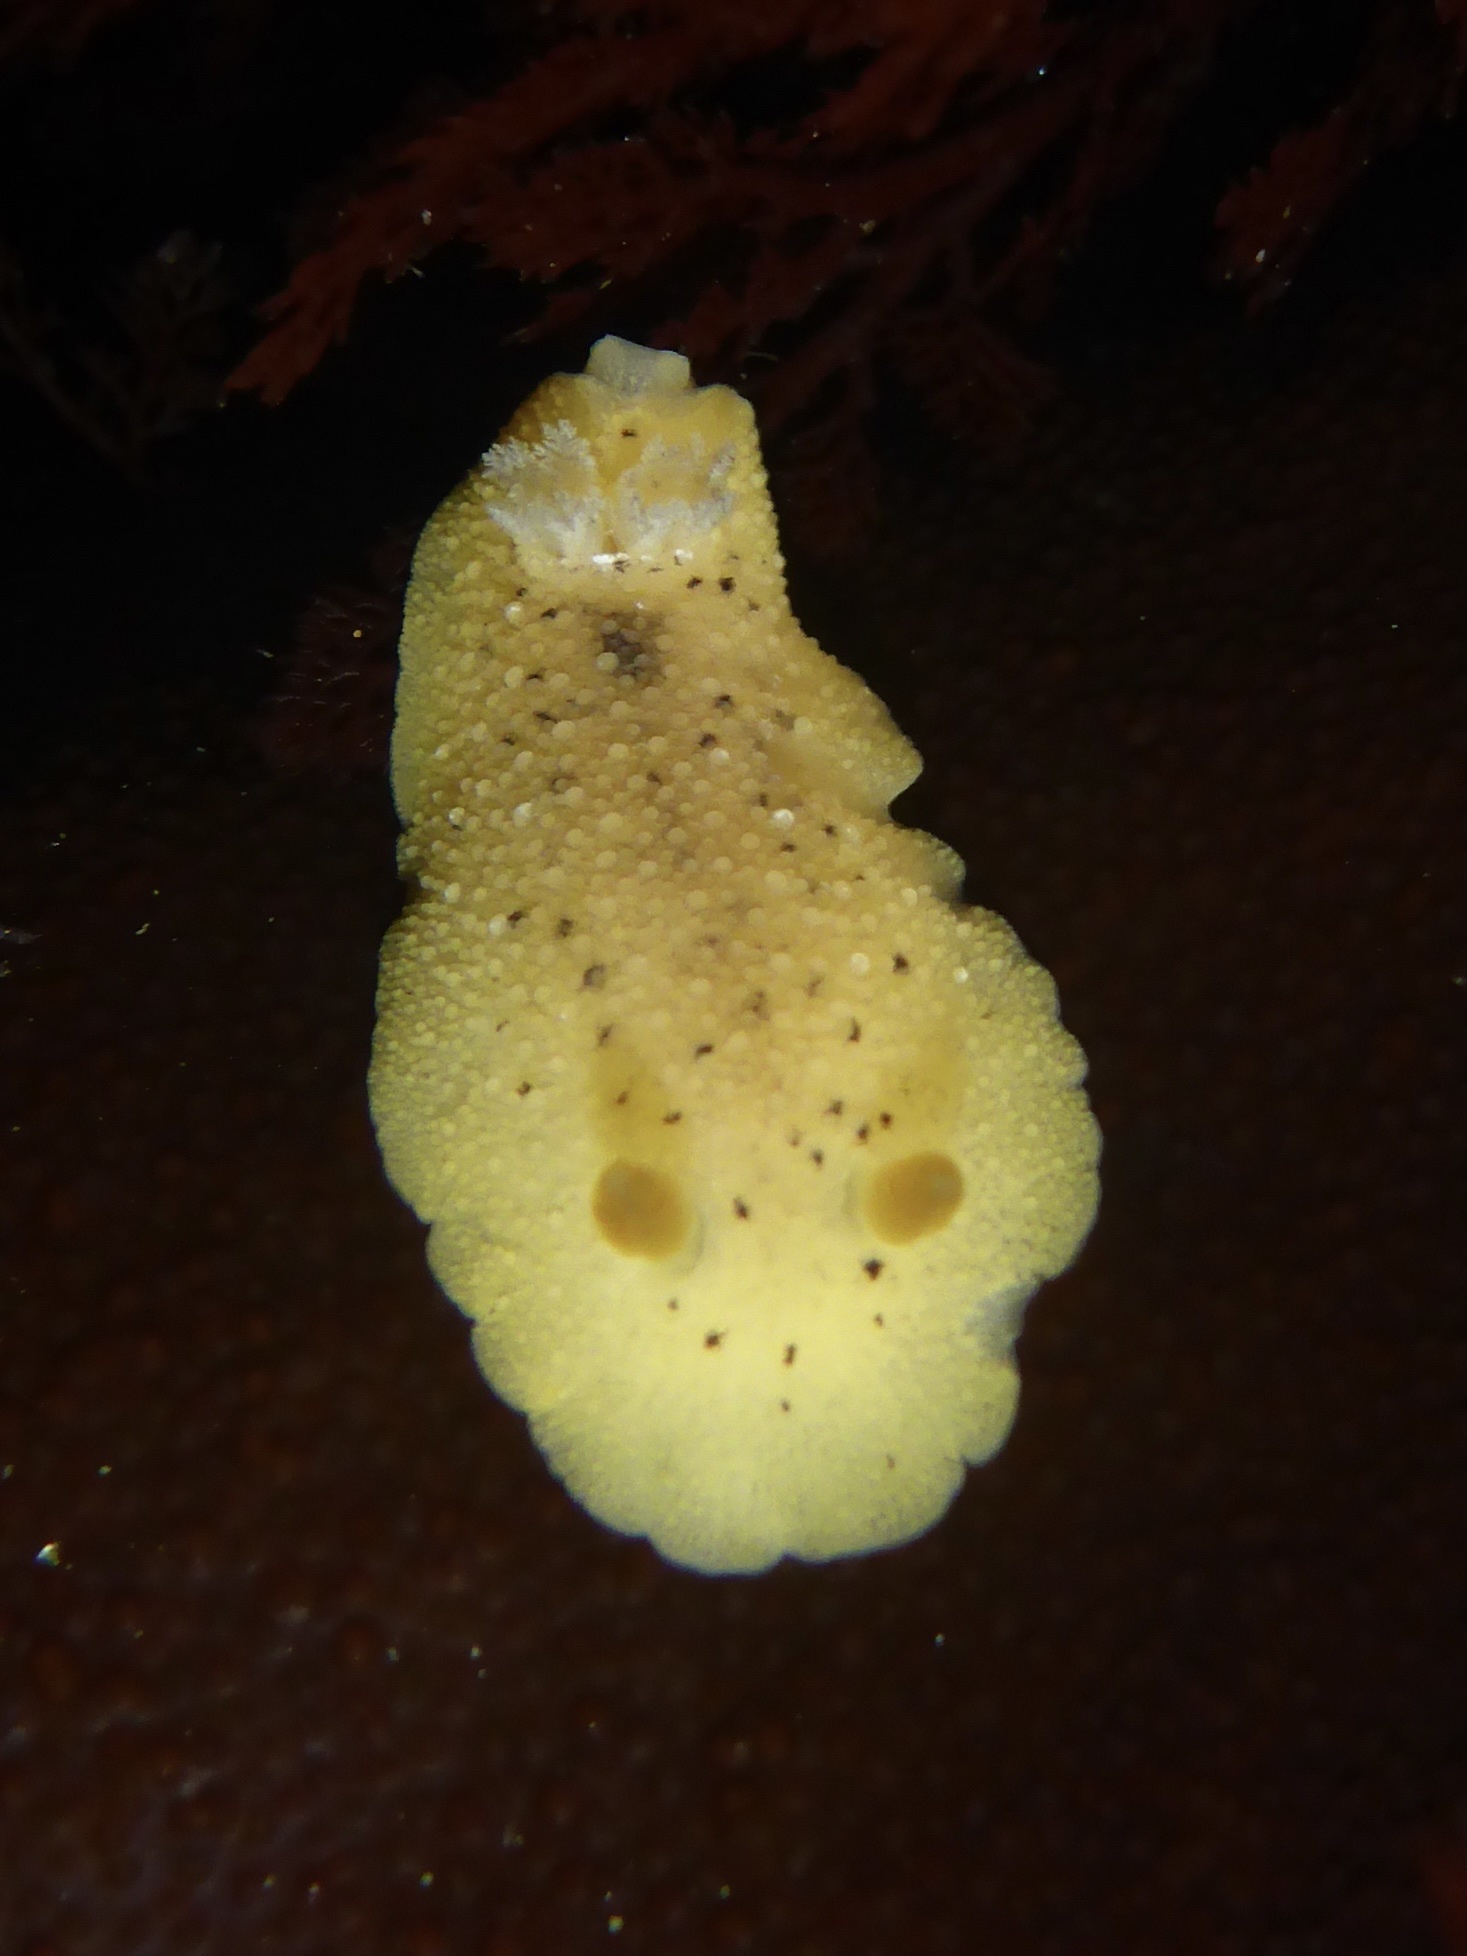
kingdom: Animalia
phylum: Mollusca
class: Gastropoda
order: Nudibranchia
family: Discodorididae
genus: Geitodoris
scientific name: Geitodoris heathi
